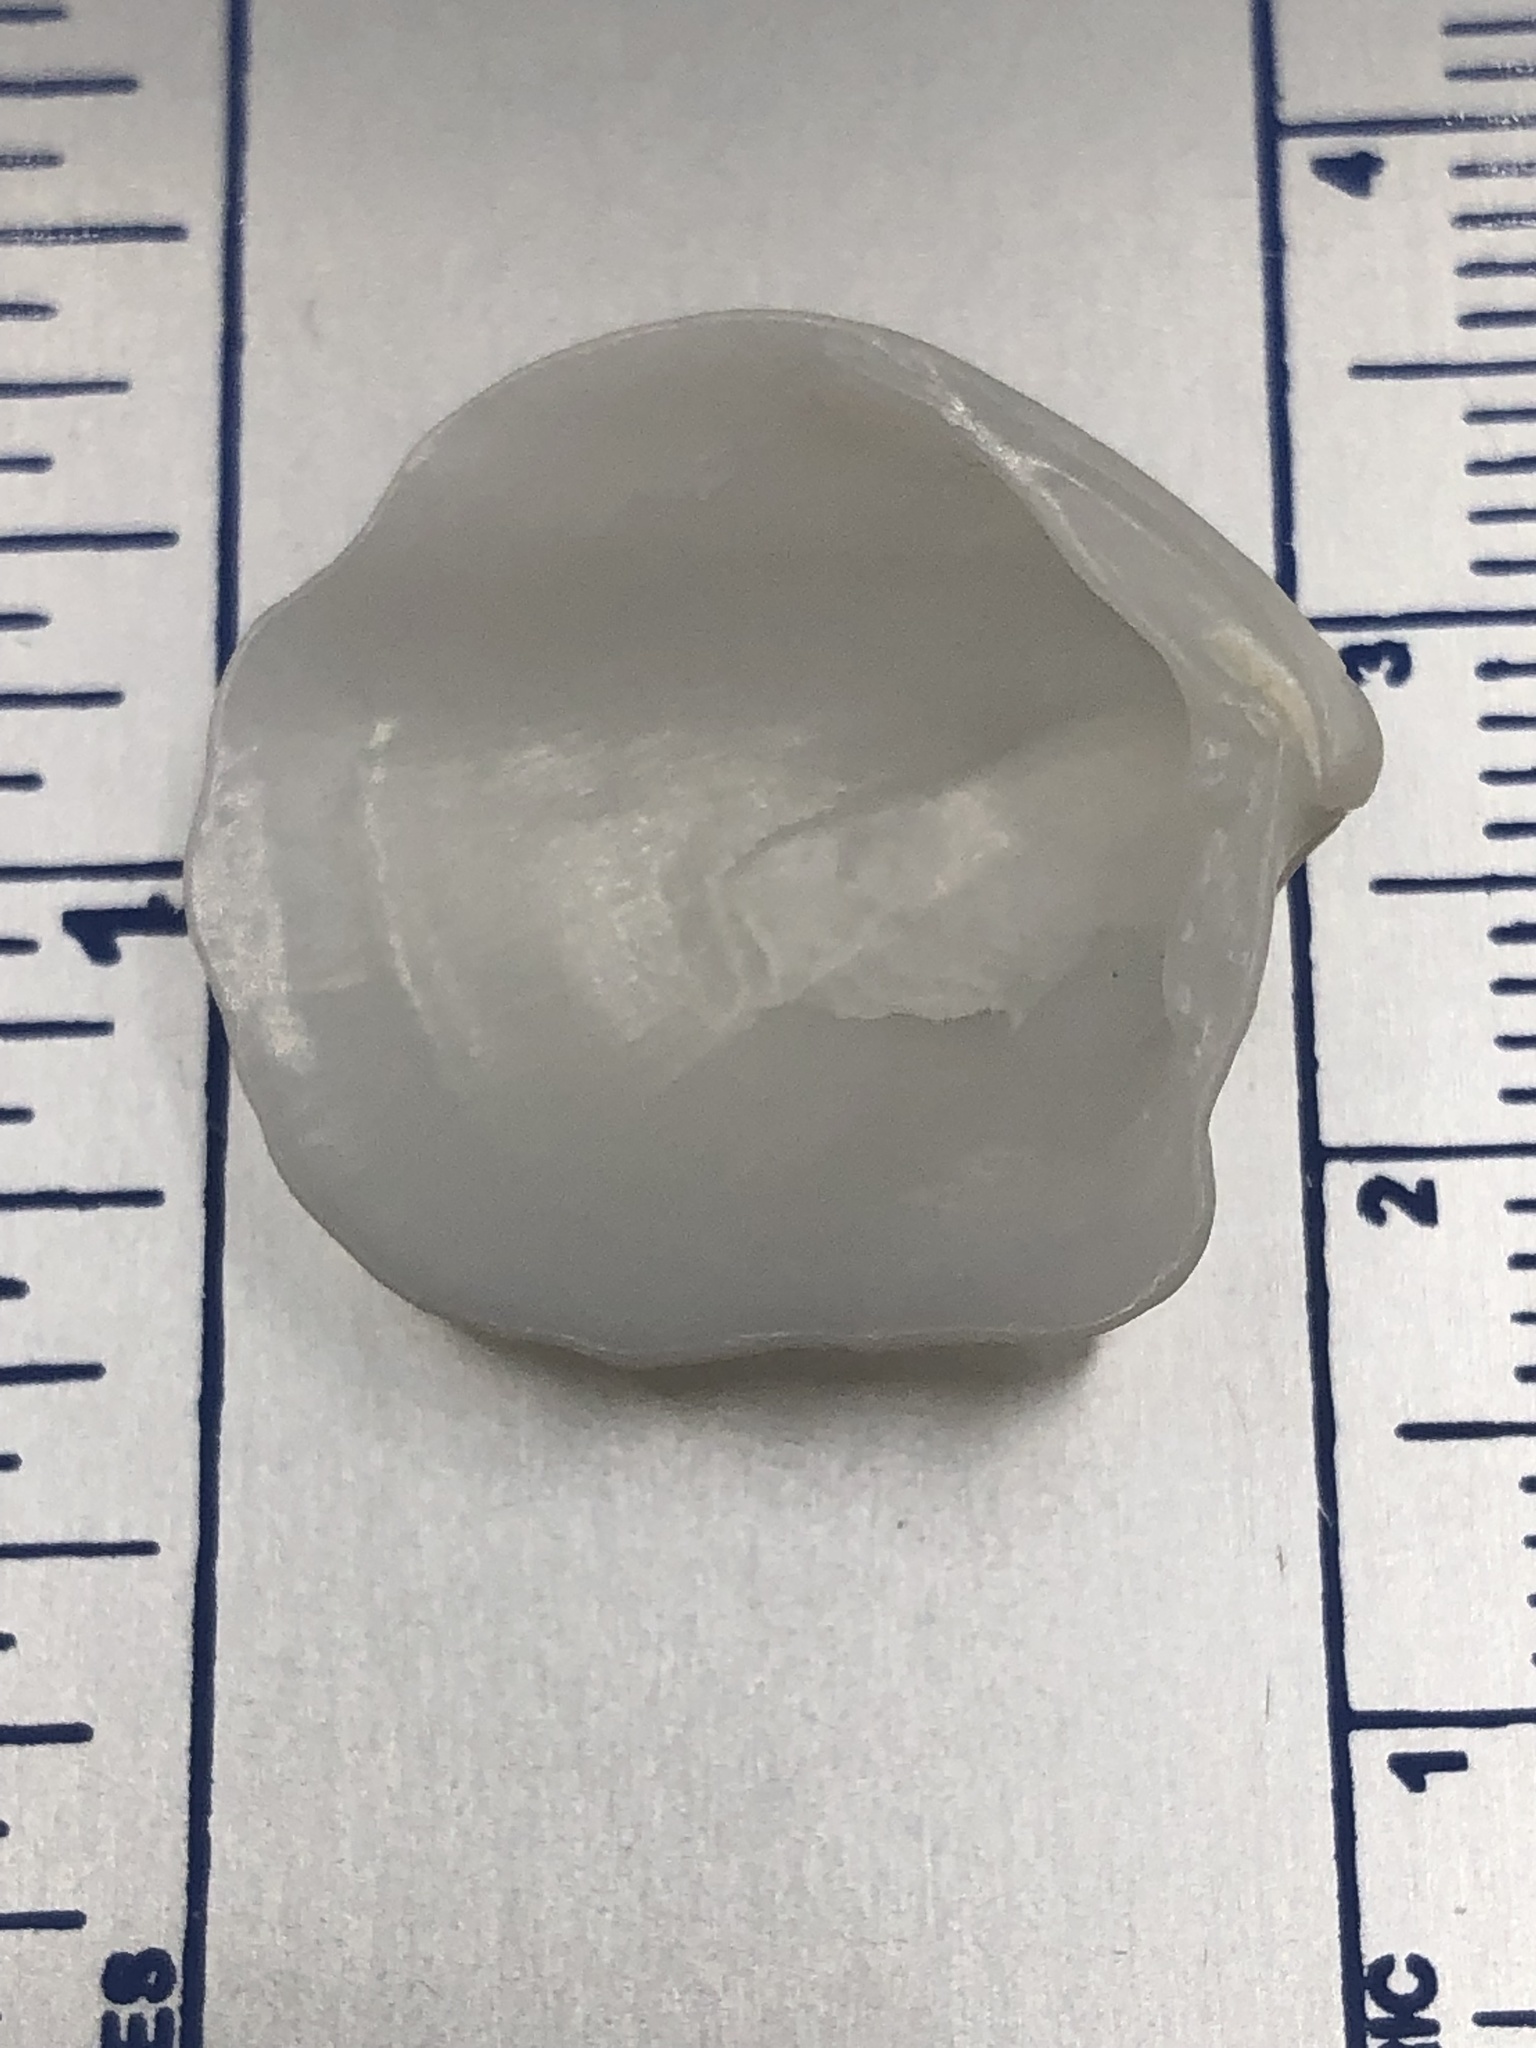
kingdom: Animalia
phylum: Mollusca
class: Bivalvia
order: Lucinida
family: Lucinidae
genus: Lucina
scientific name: Lucina pensylvanica
